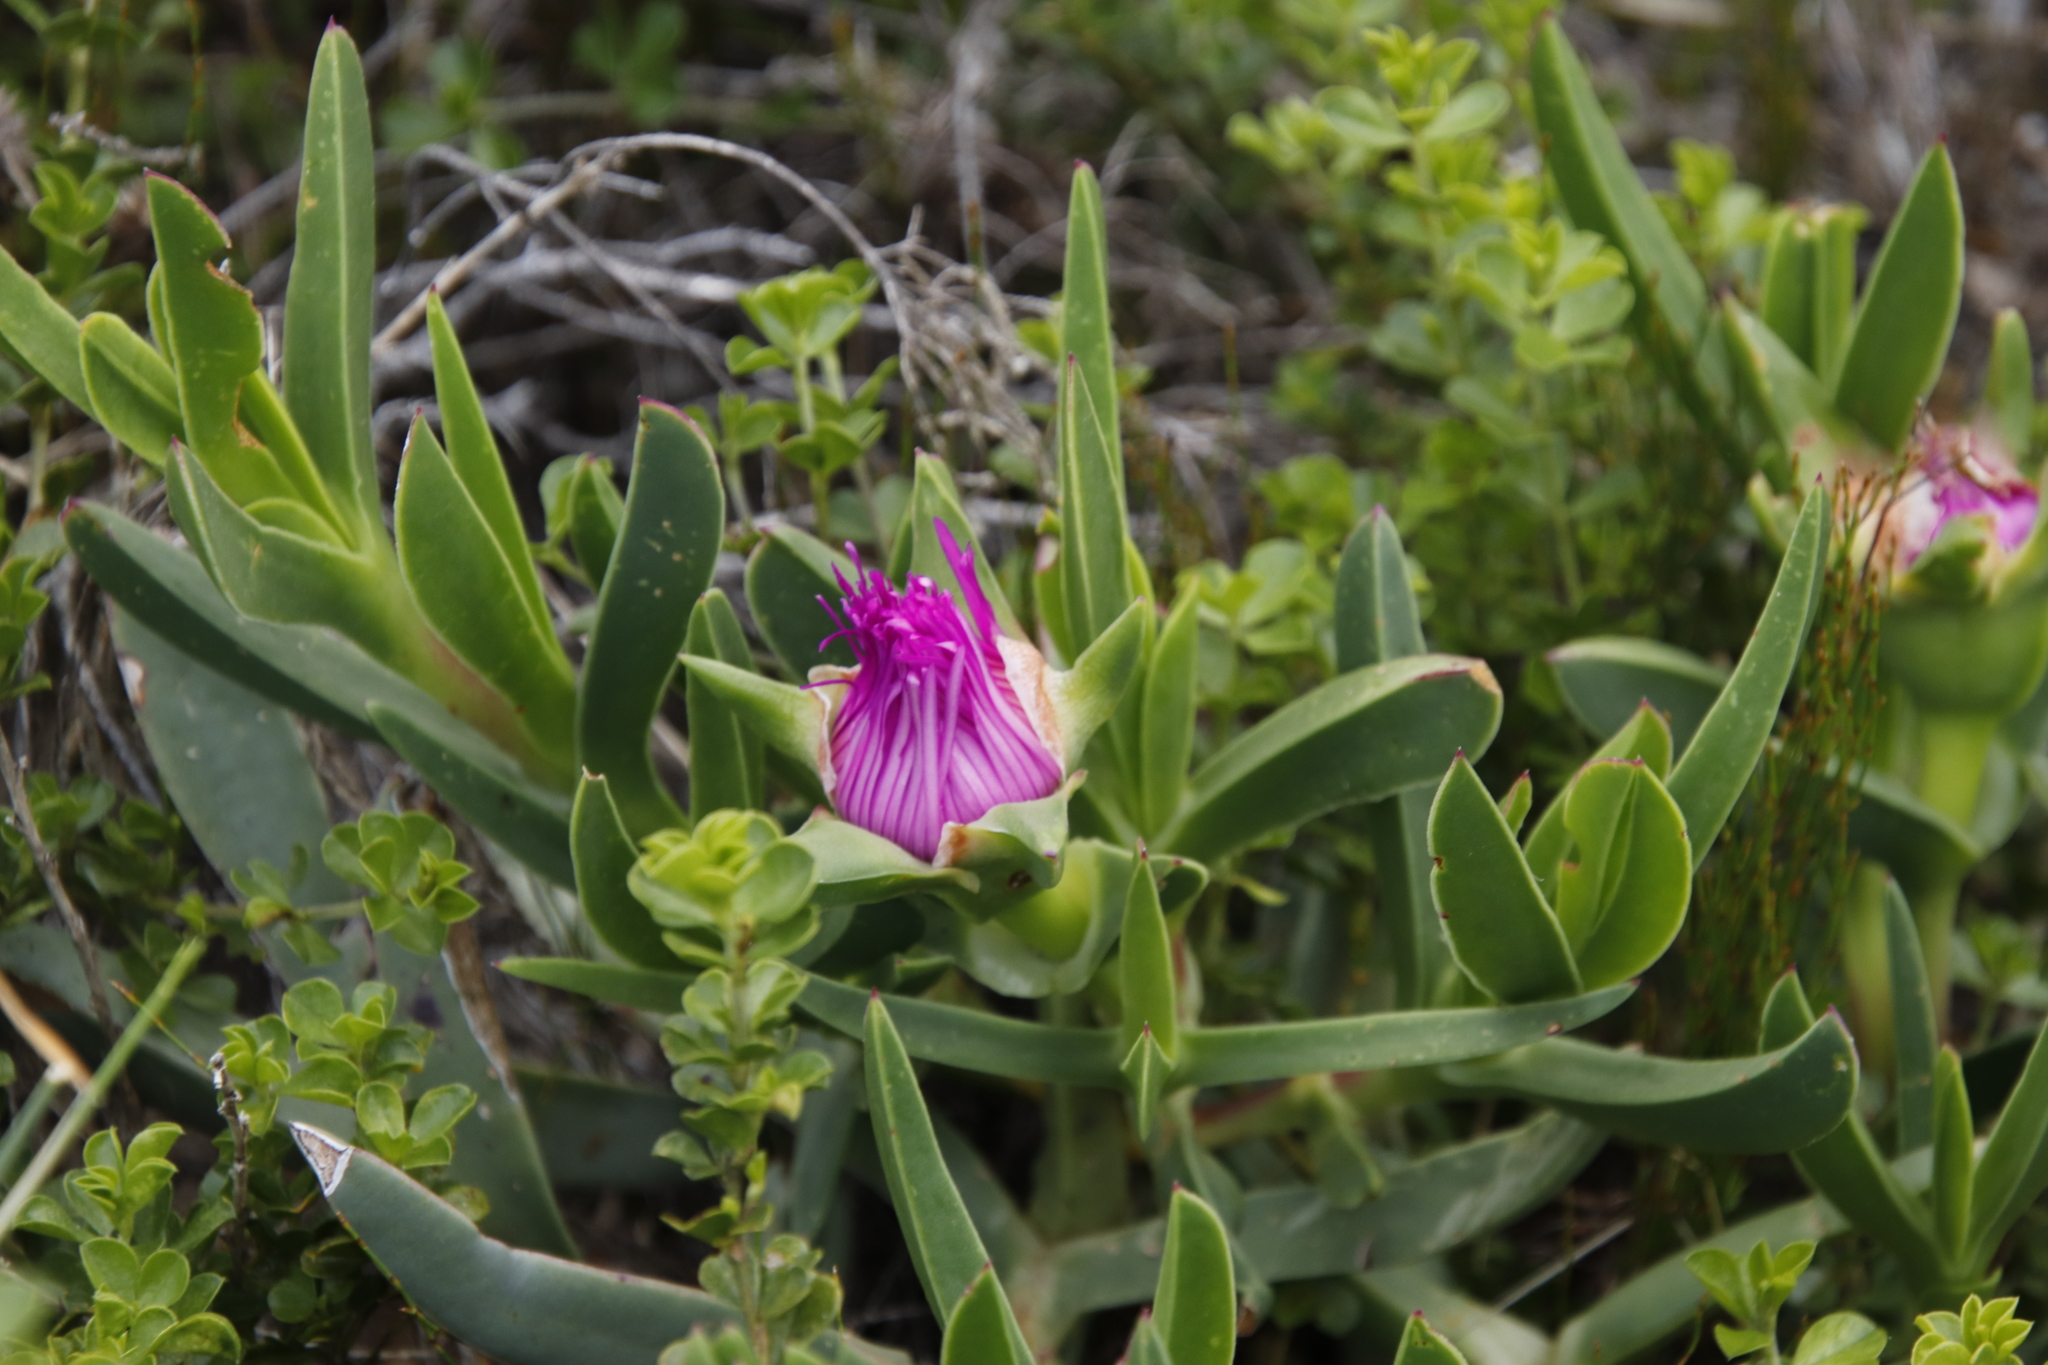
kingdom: Plantae
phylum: Tracheophyta
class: Magnoliopsida
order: Caryophyllales
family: Aizoaceae
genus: Carpobrotus
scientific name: Carpobrotus acinaciformis
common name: Sally-my-handsome
